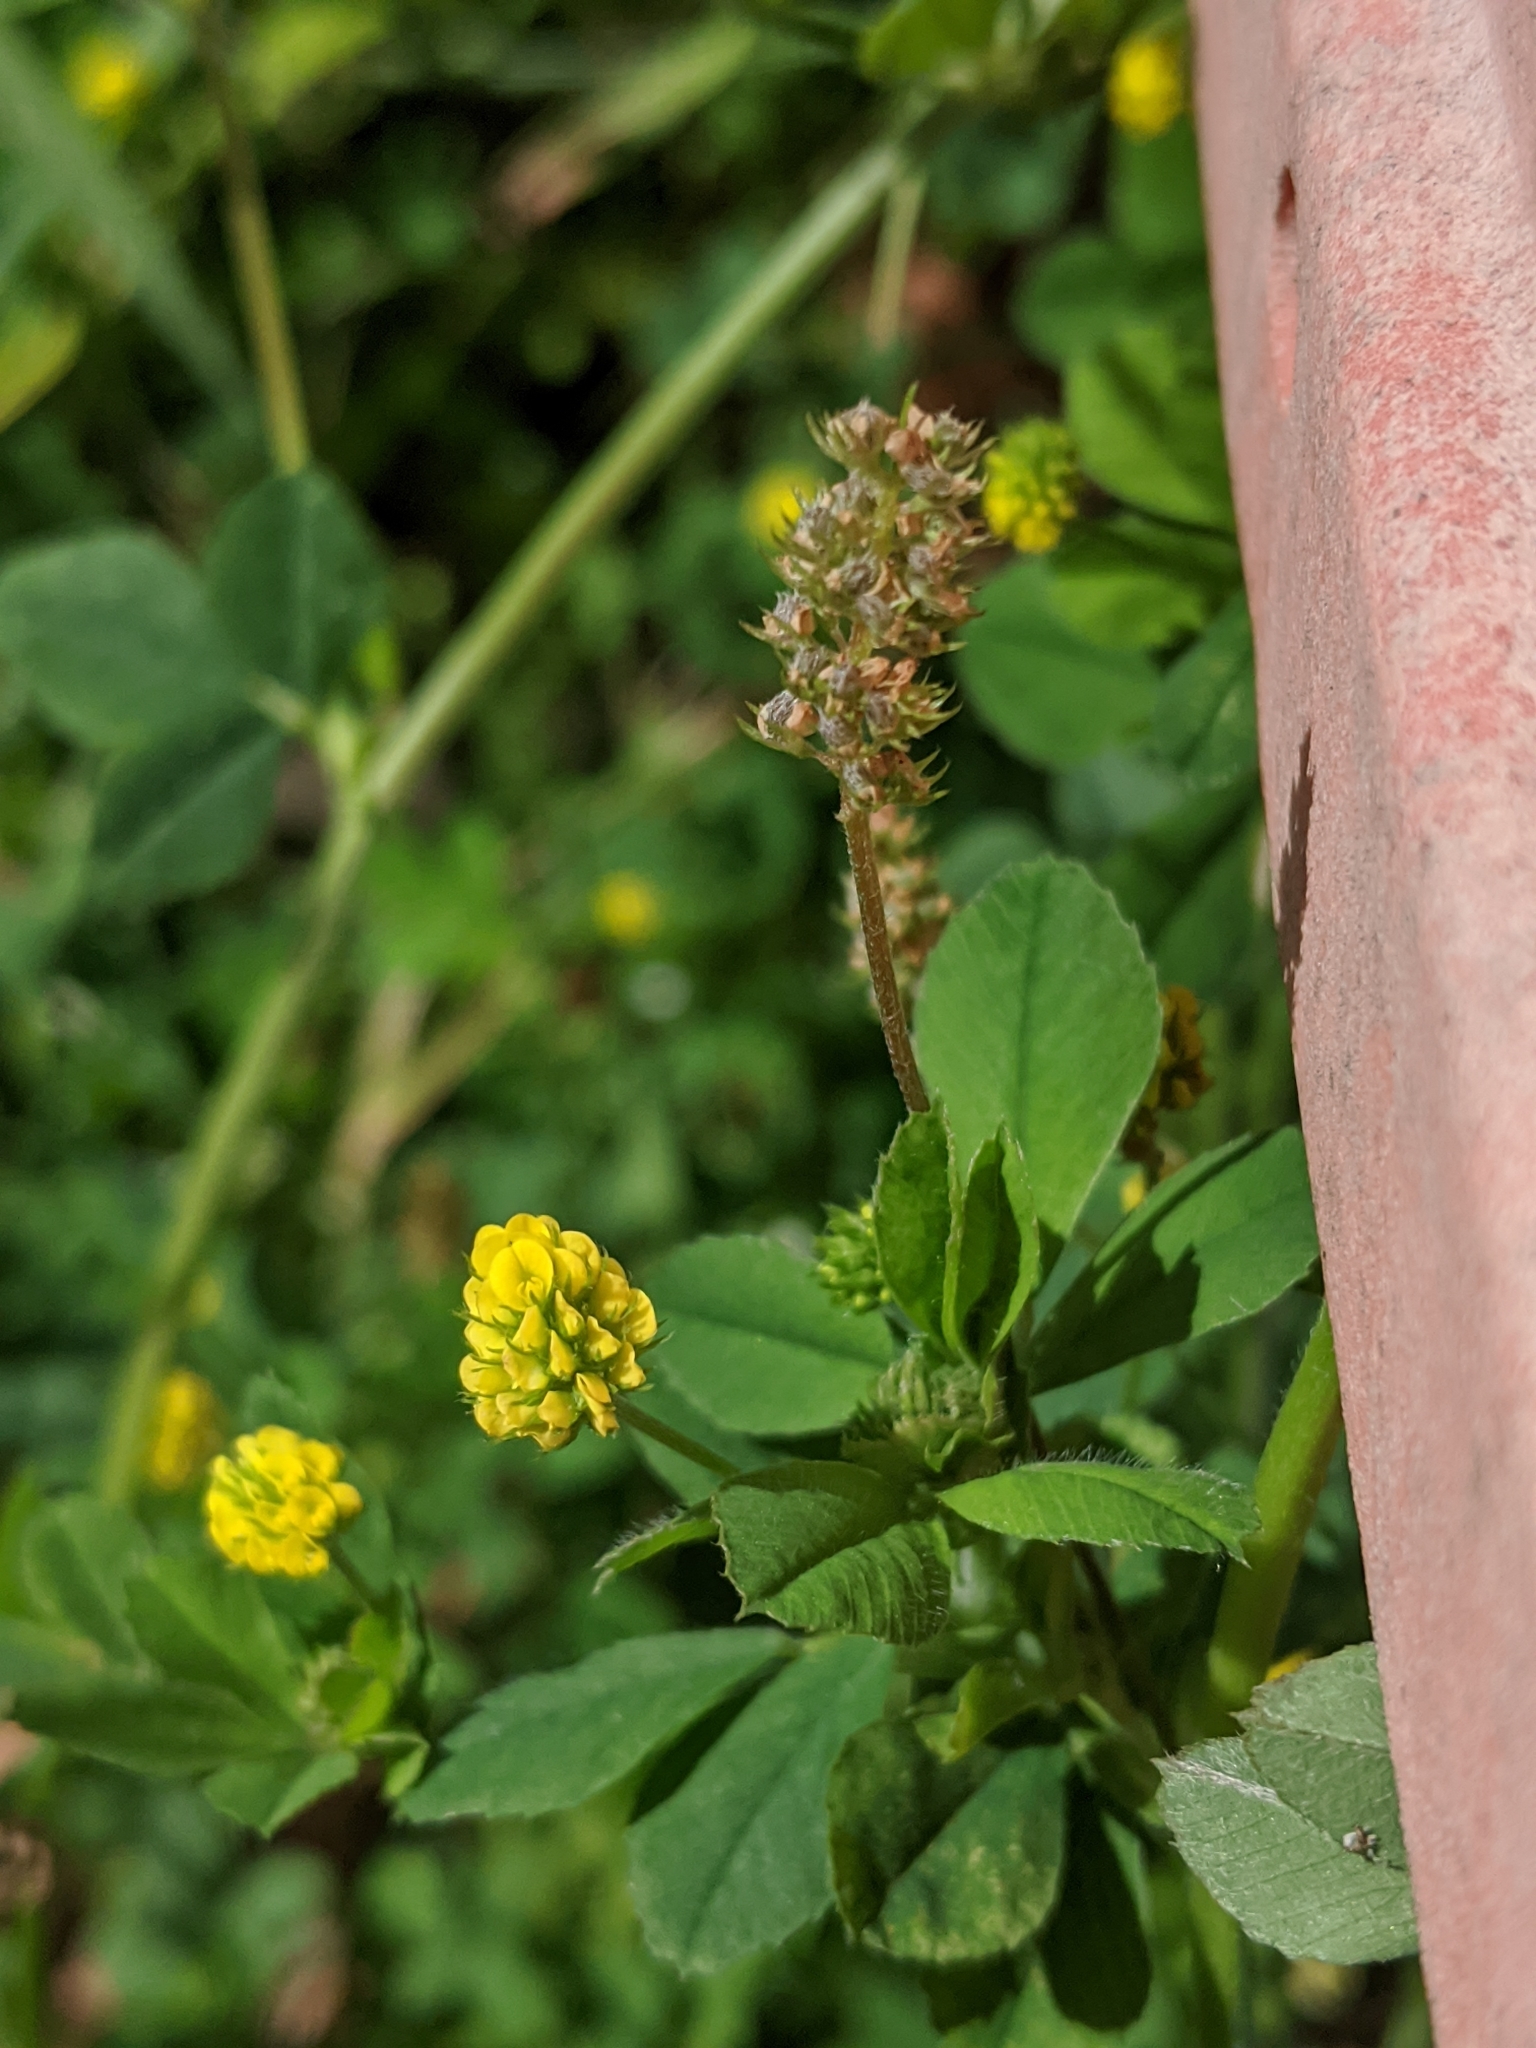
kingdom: Plantae
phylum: Tracheophyta
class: Magnoliopsida
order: Fabales
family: Fabaceae
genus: Medicago
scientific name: Medicago lupulina
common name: Black medick
